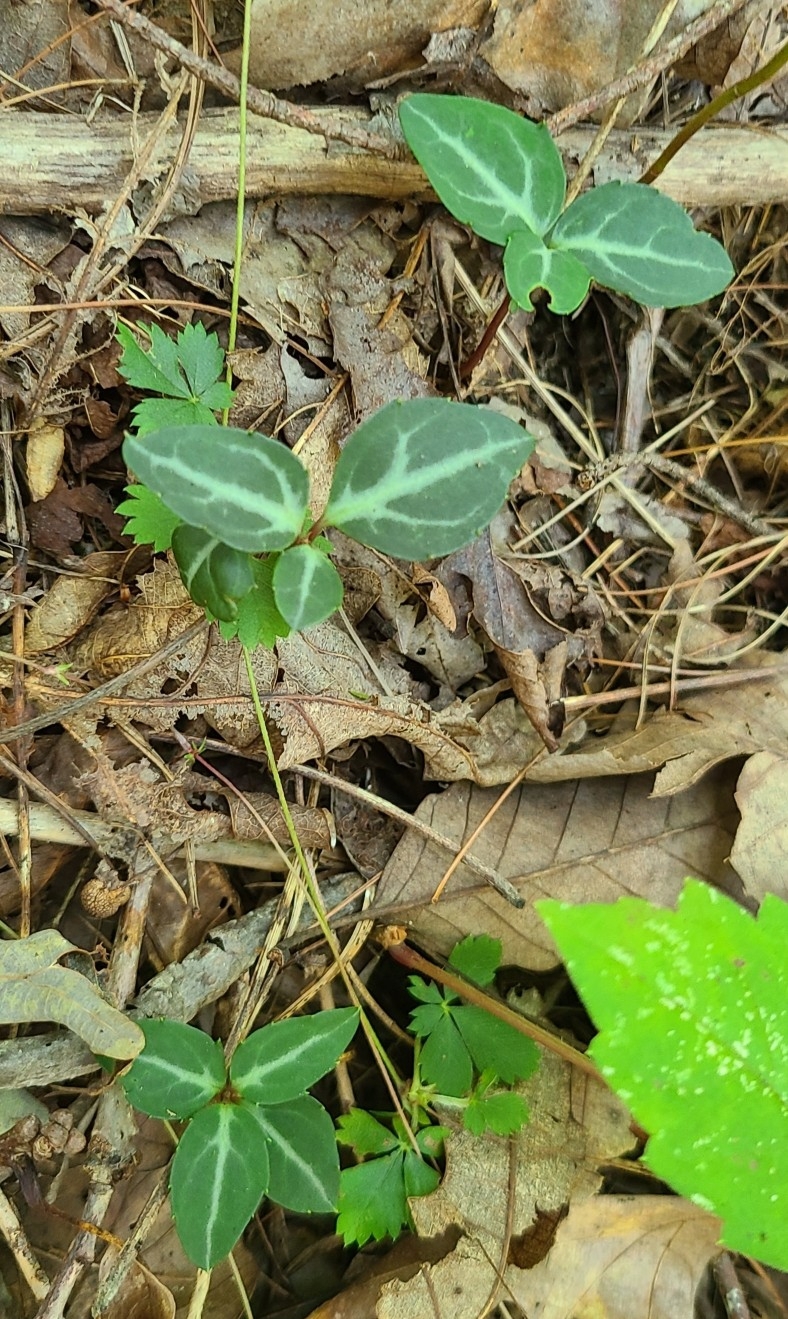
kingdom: Plantae
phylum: Tracheophyta
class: Magnoliopsida
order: Ericales
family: Ericaceae
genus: Chimaphila
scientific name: Chimaphila maculata
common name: Spotted pipsissewa
